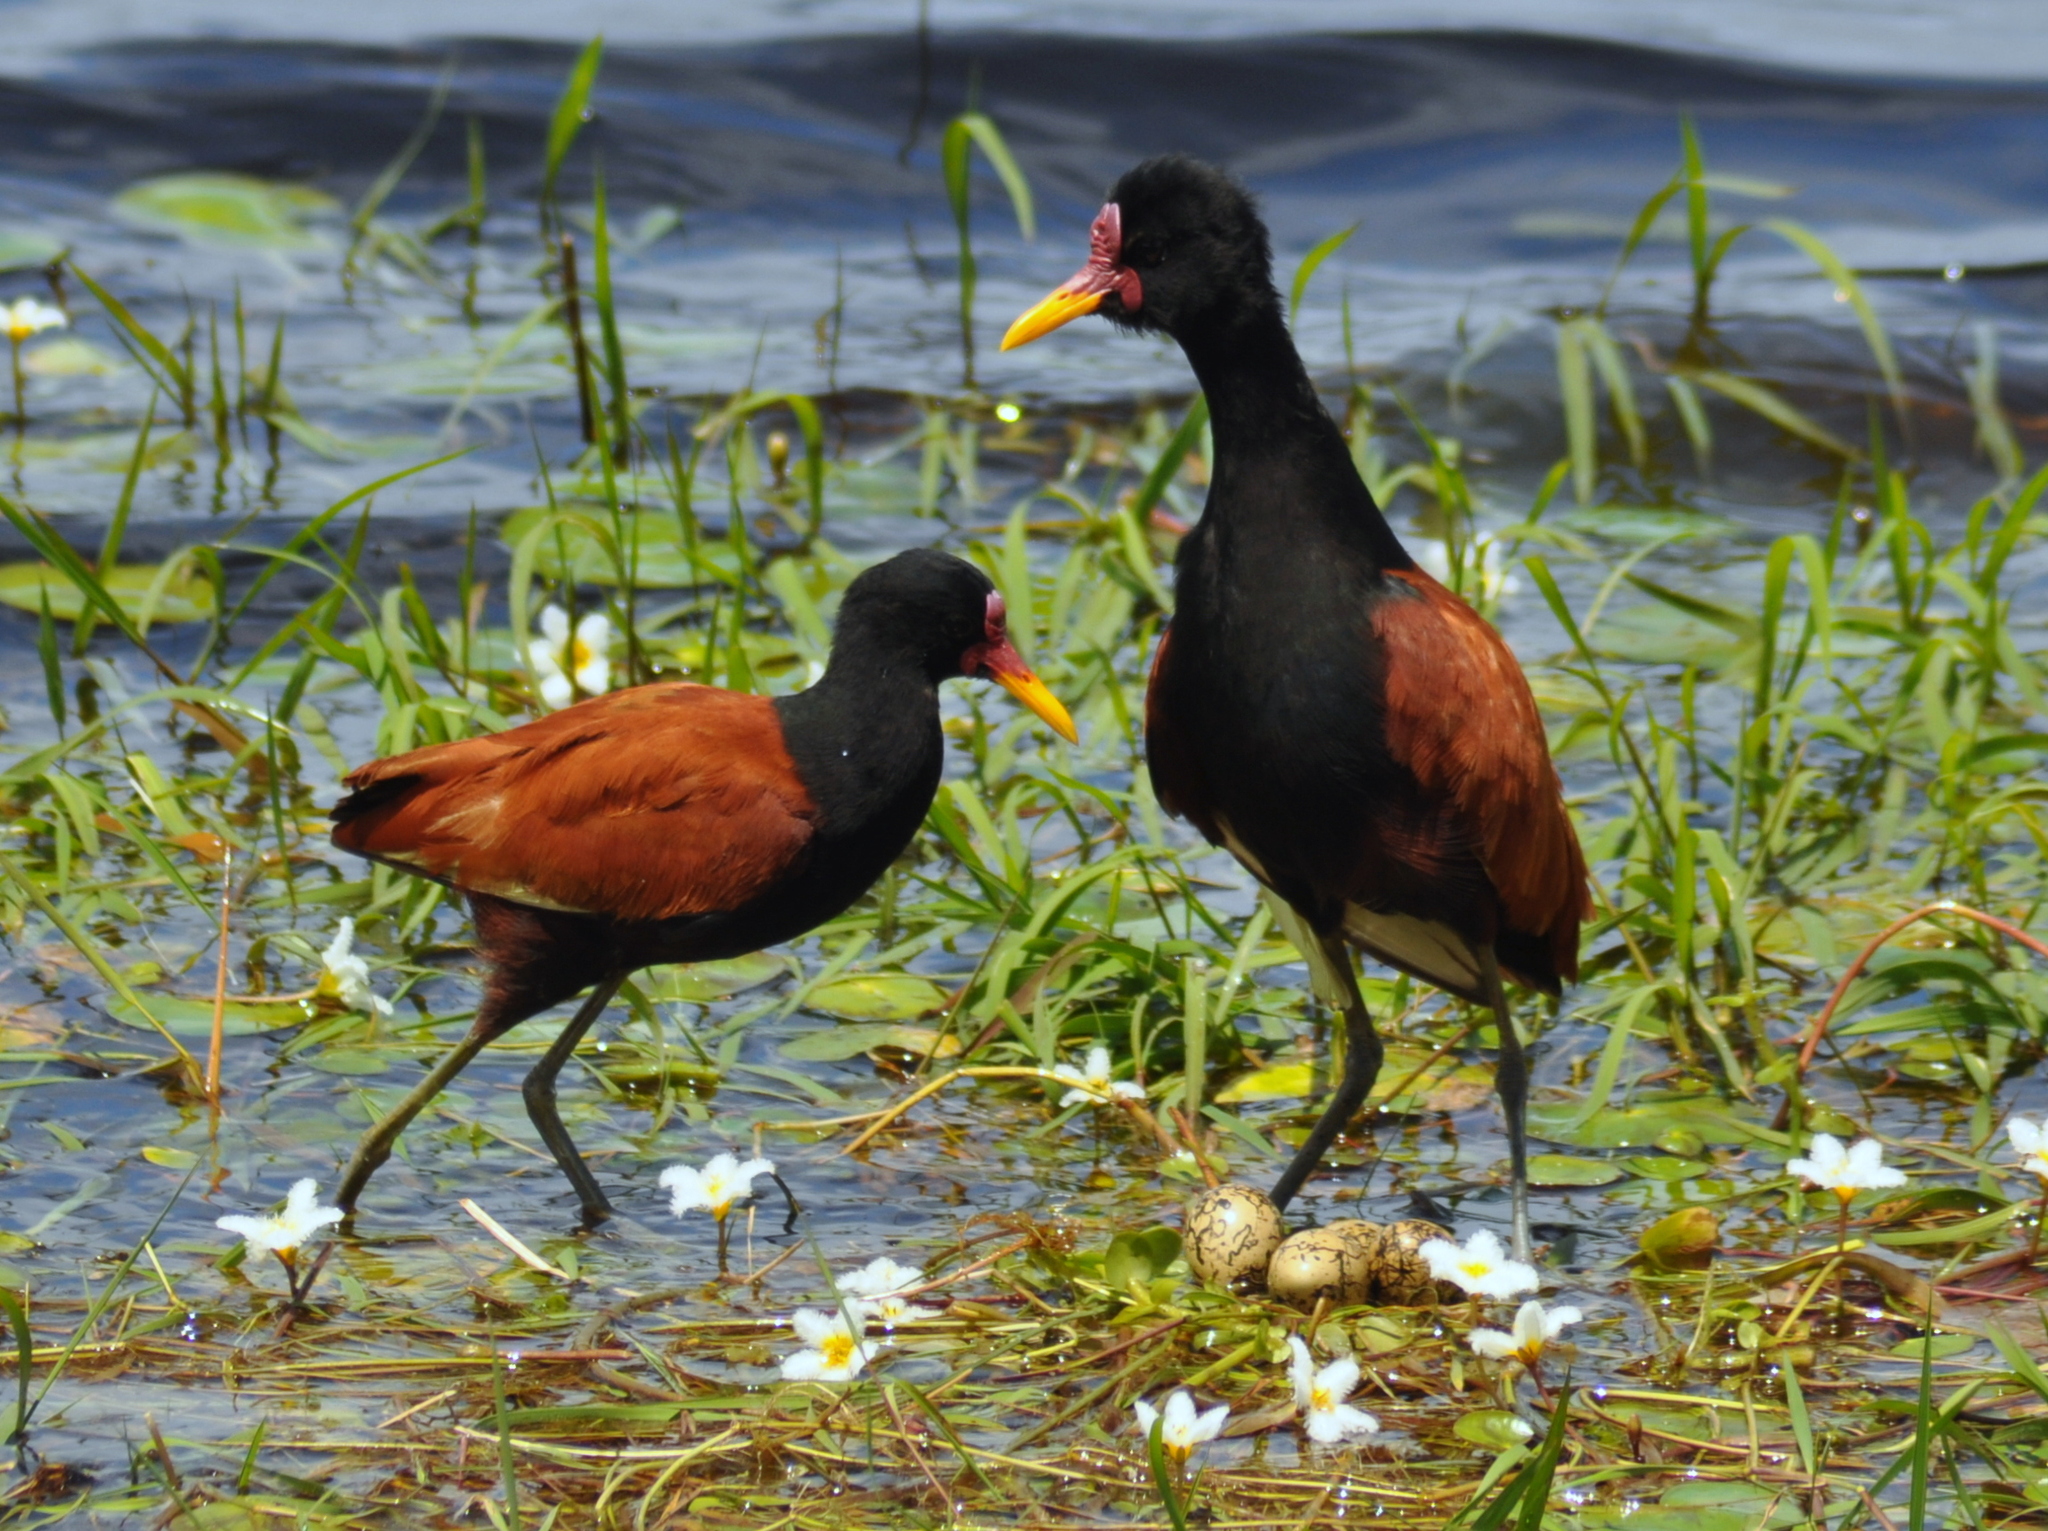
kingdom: Animalia
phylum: Chordata
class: Aves
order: Charadriiformes
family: Jacanidae
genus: Jacana
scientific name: Jacana jacana
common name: Wattled jacana
